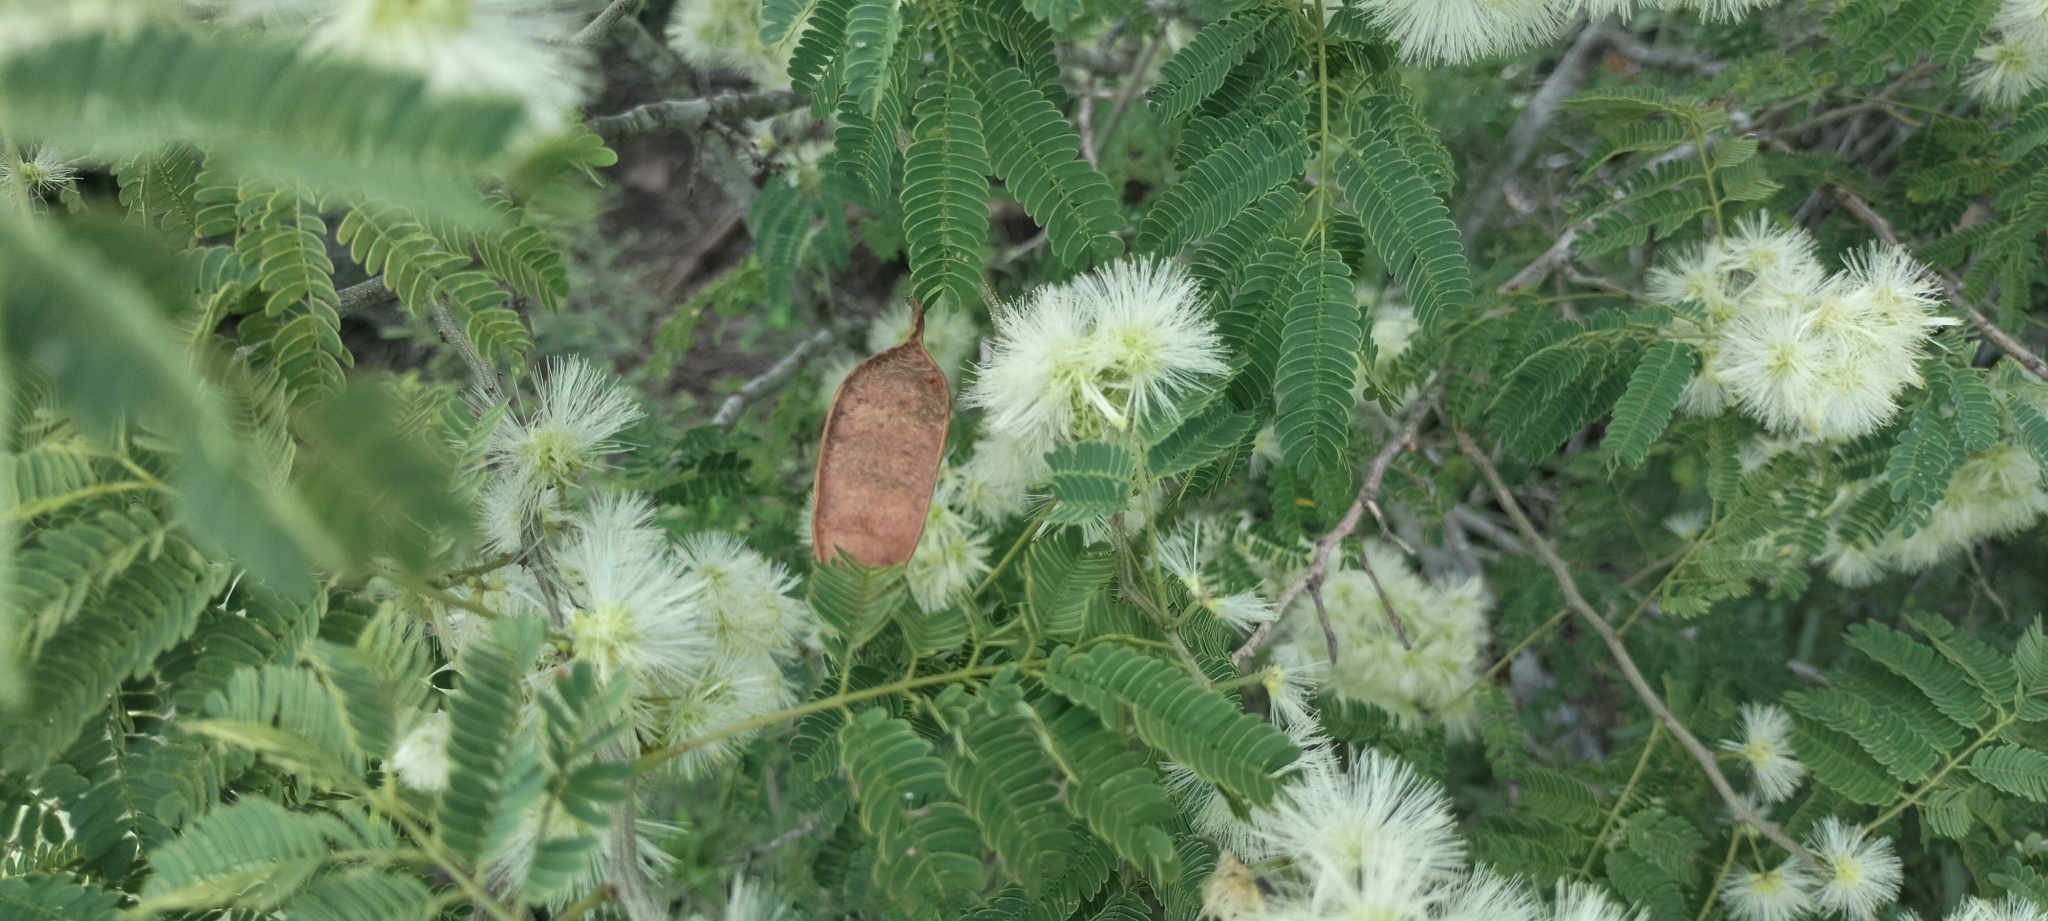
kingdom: Plantae
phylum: Tracheophyta
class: Magnoliopsida
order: Fabales
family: Fabaceae
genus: Havardia
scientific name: Havardia pallens
